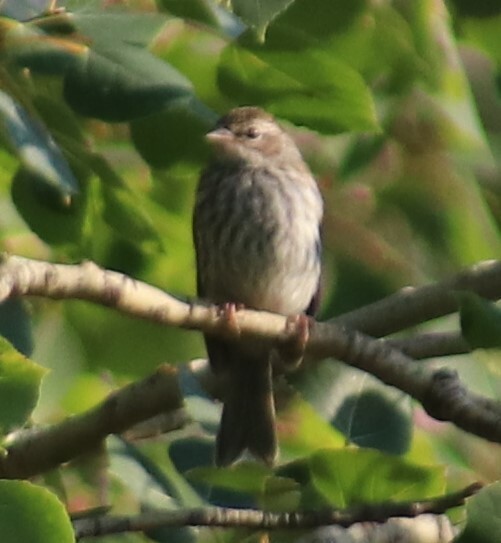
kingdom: Animalia
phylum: Chordata
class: Aves
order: Passeriformes
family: Passerellidae
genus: Spizella
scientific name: Spizella passerina
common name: Chipping sparrow
